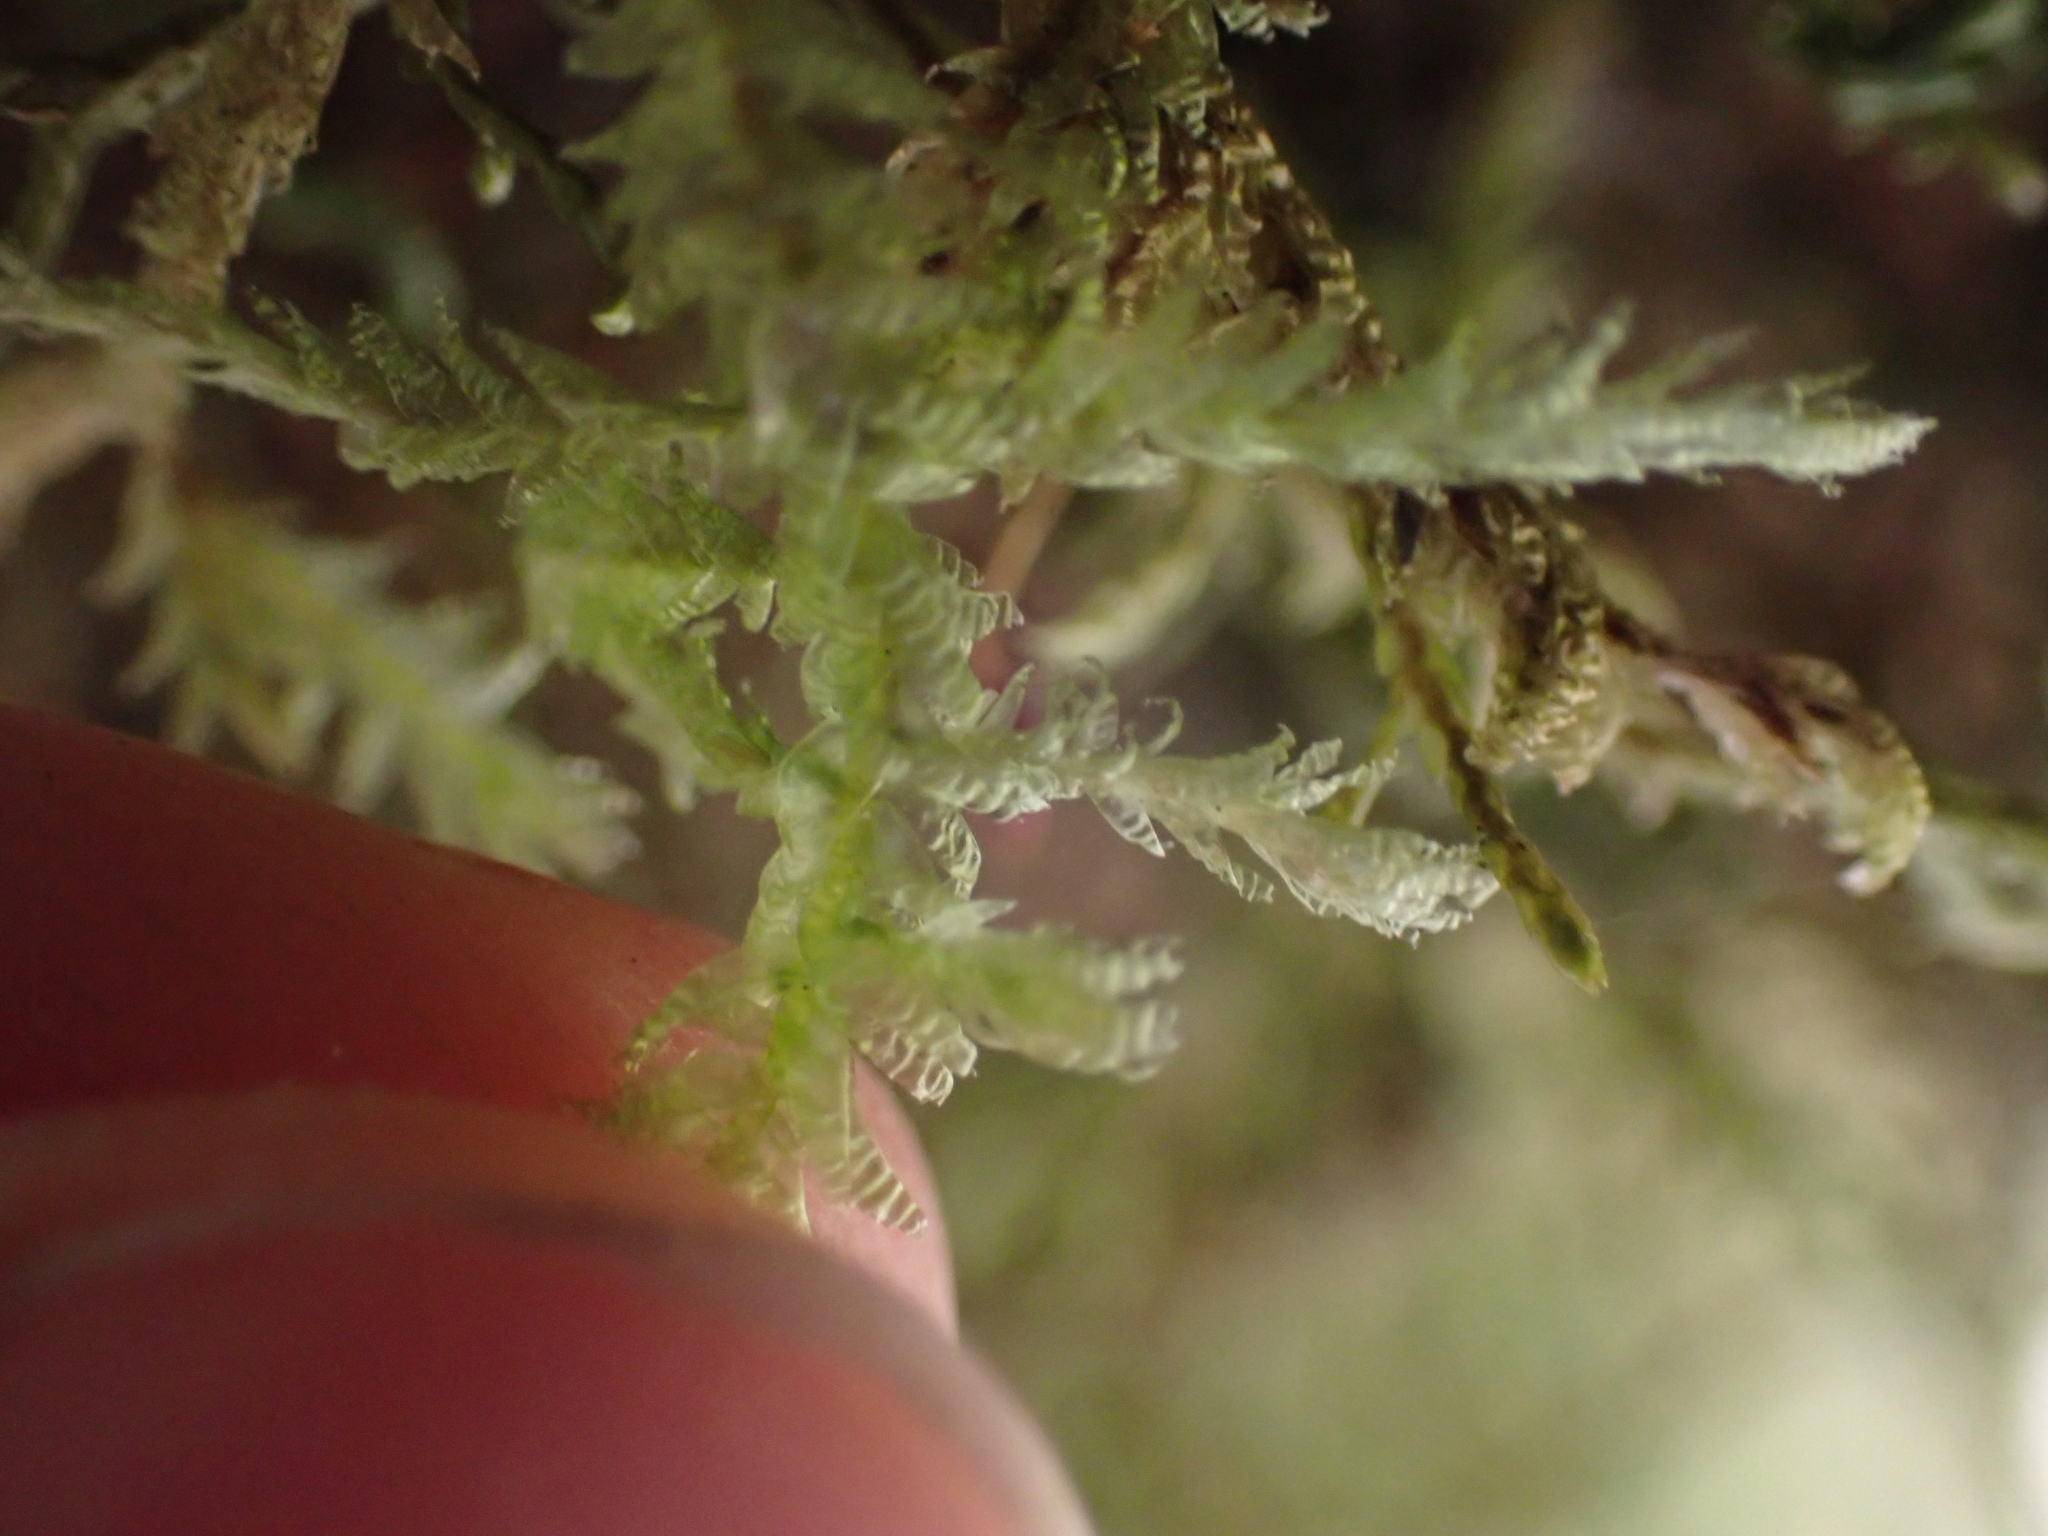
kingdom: Plantae
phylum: Bryophyta
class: Bryopsida
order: Hypnales
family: Neckeraceae
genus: Neckera
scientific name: Neckera douglasii
